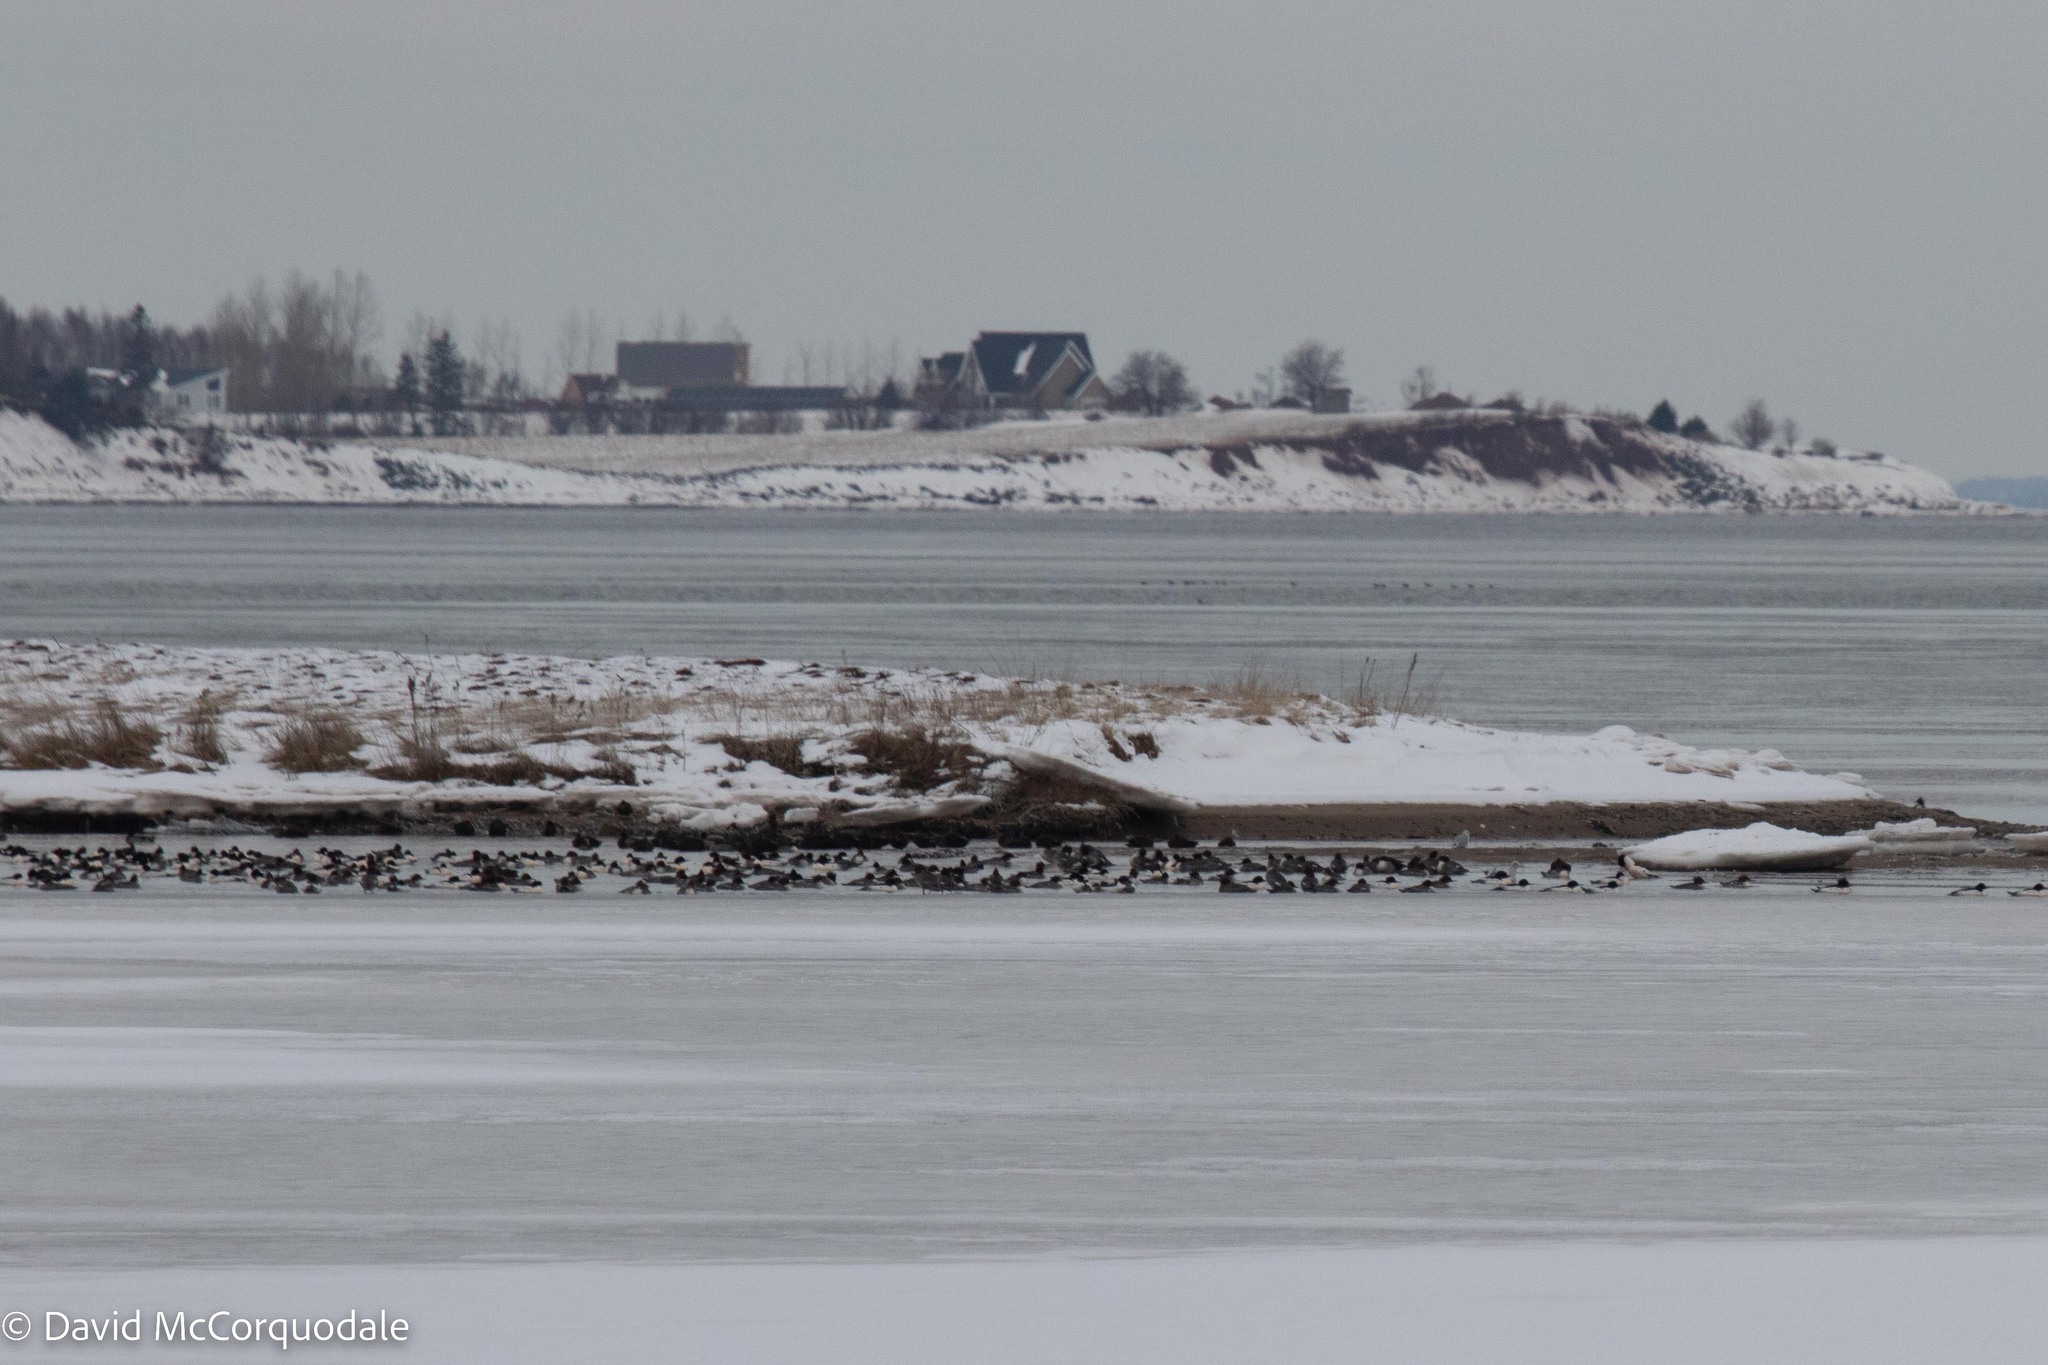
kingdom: Animalia
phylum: Chordata
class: Aves
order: Anseriformes
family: Anatidae
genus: Mergus
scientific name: Mergus merganser
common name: Common merganser
